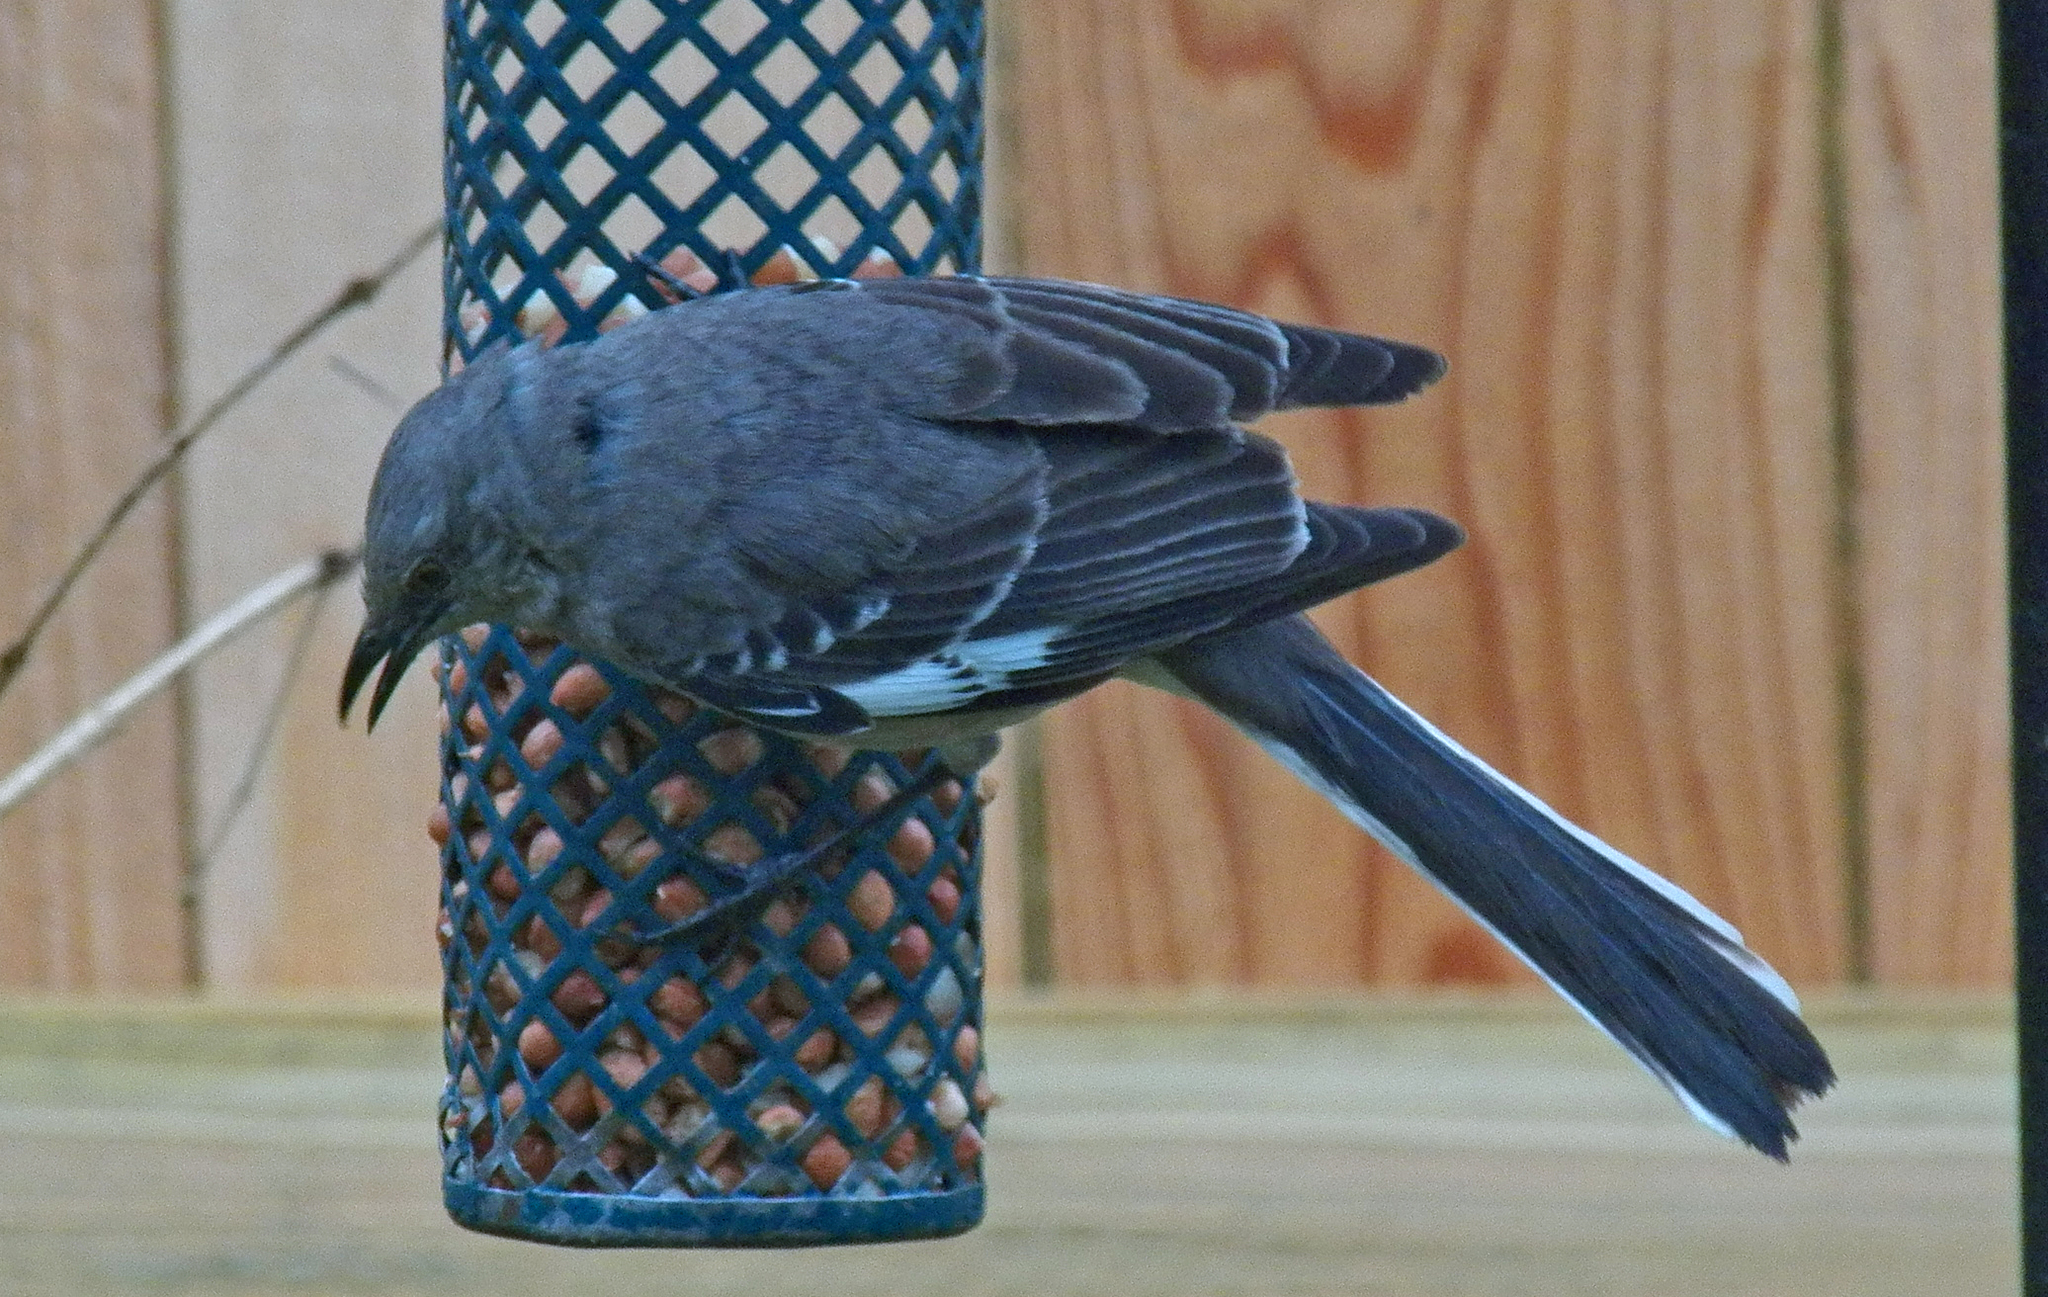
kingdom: Animalia
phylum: Chordata
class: Aves
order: Passeriformes
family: Mimidae
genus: Mimus
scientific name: Mimus polyglottos
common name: Northern mockingbird
